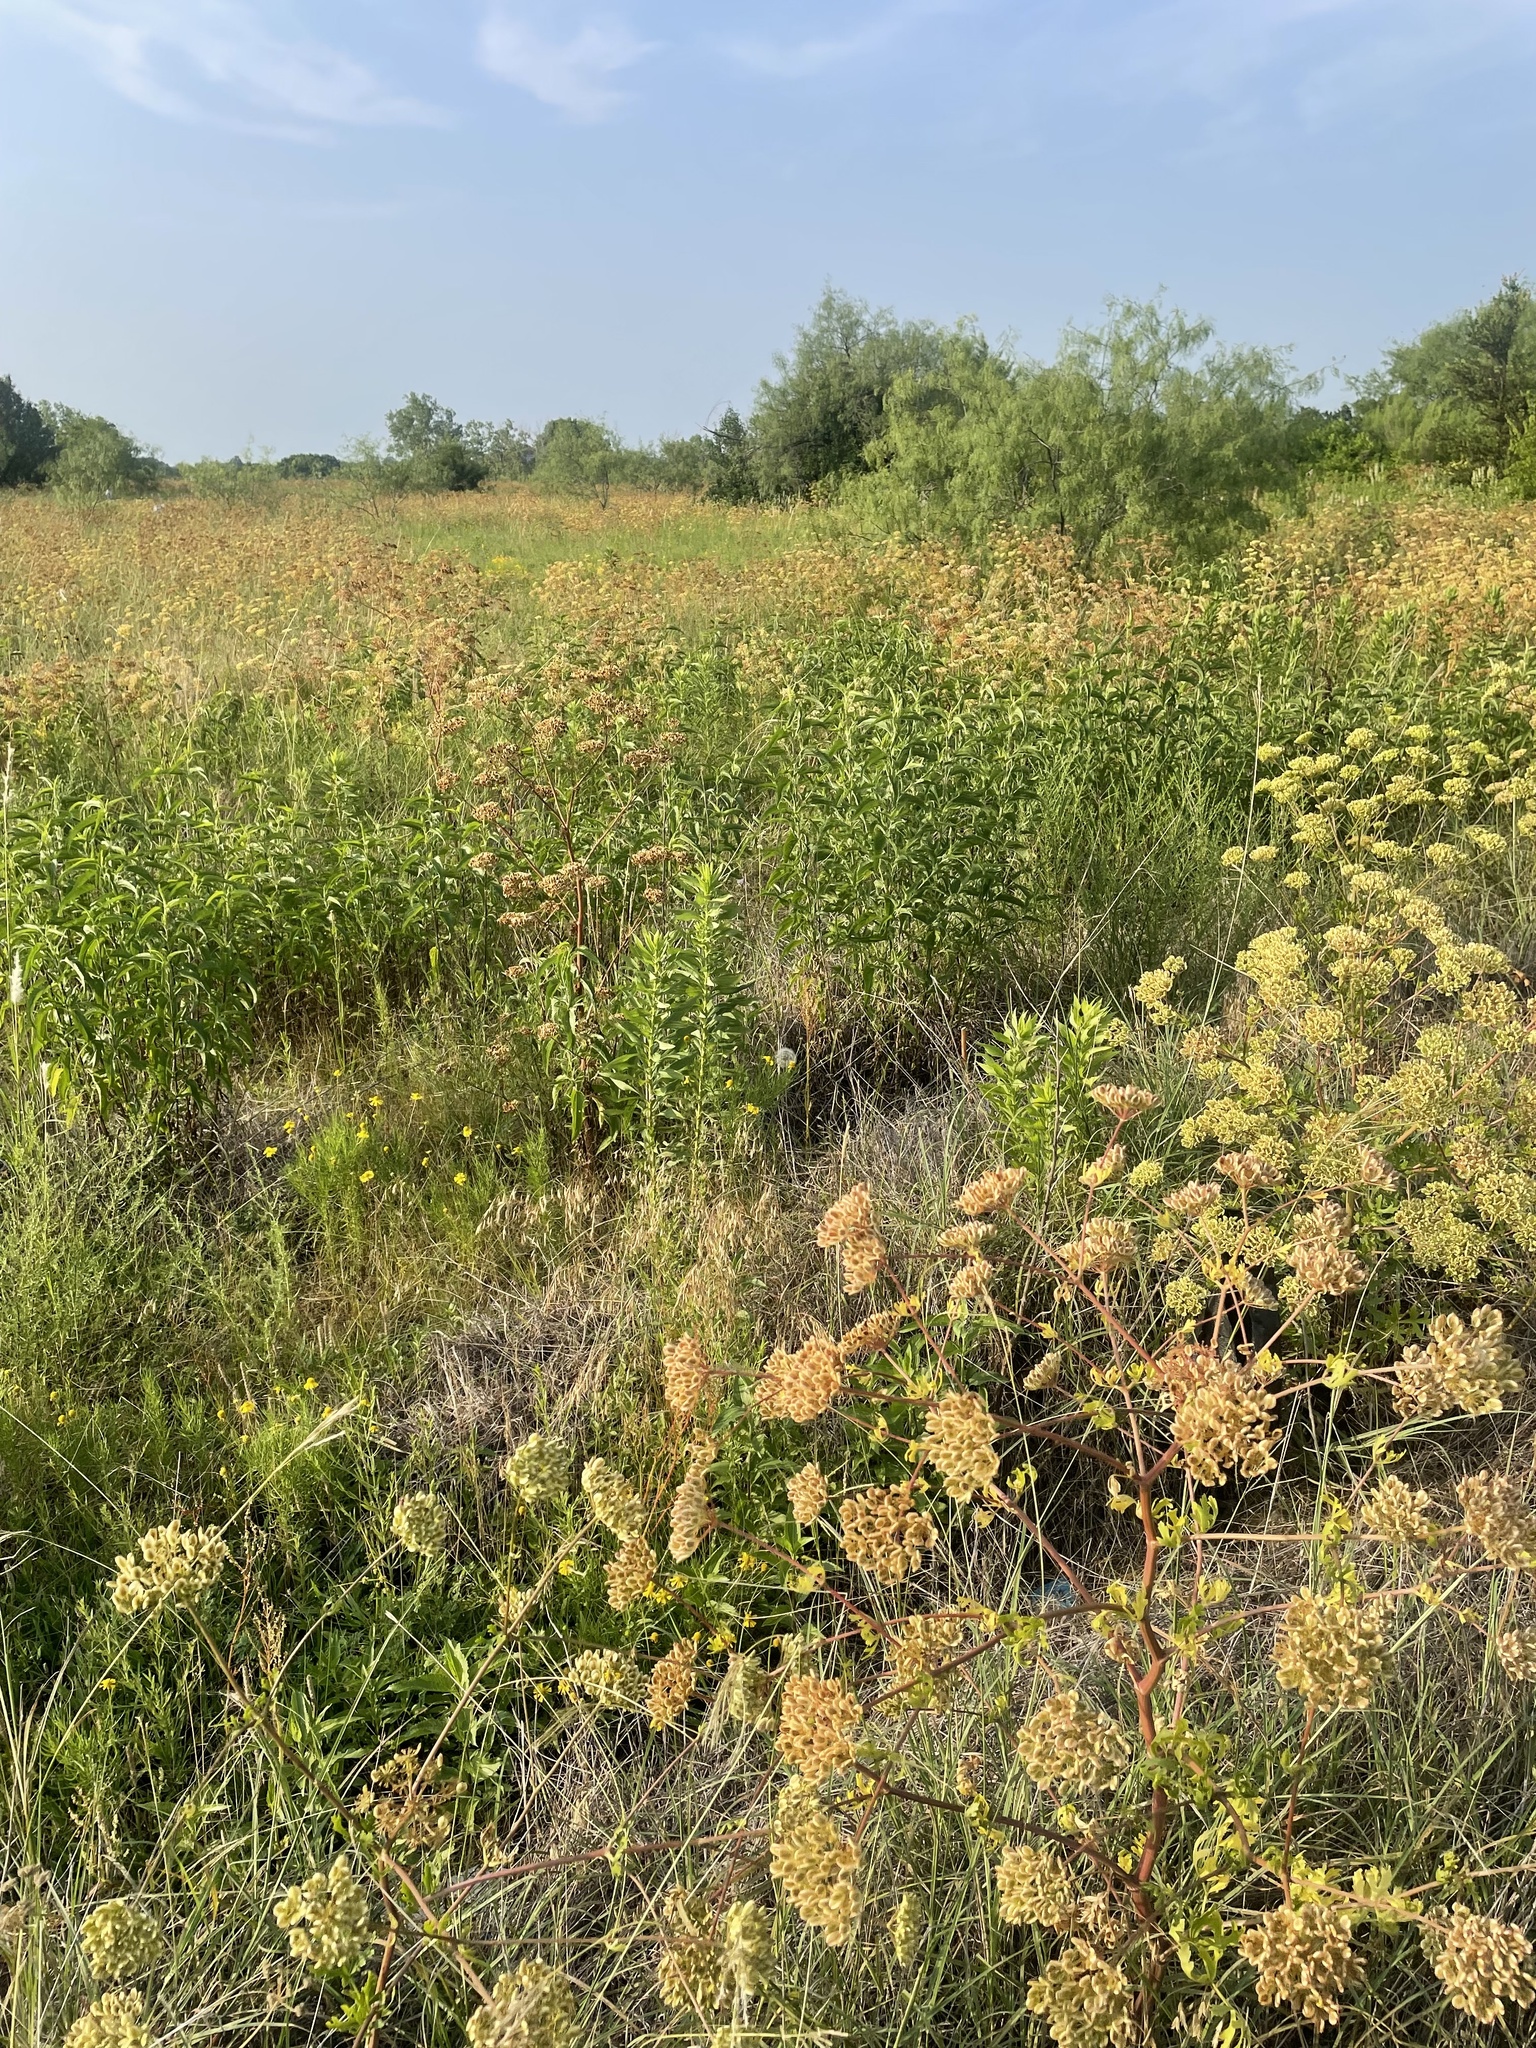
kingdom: Plantae
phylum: Tracheophyta
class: Magnoliopsida
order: Apiales
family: Apiaceae
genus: Polytaenia
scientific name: Polytaenia texana
